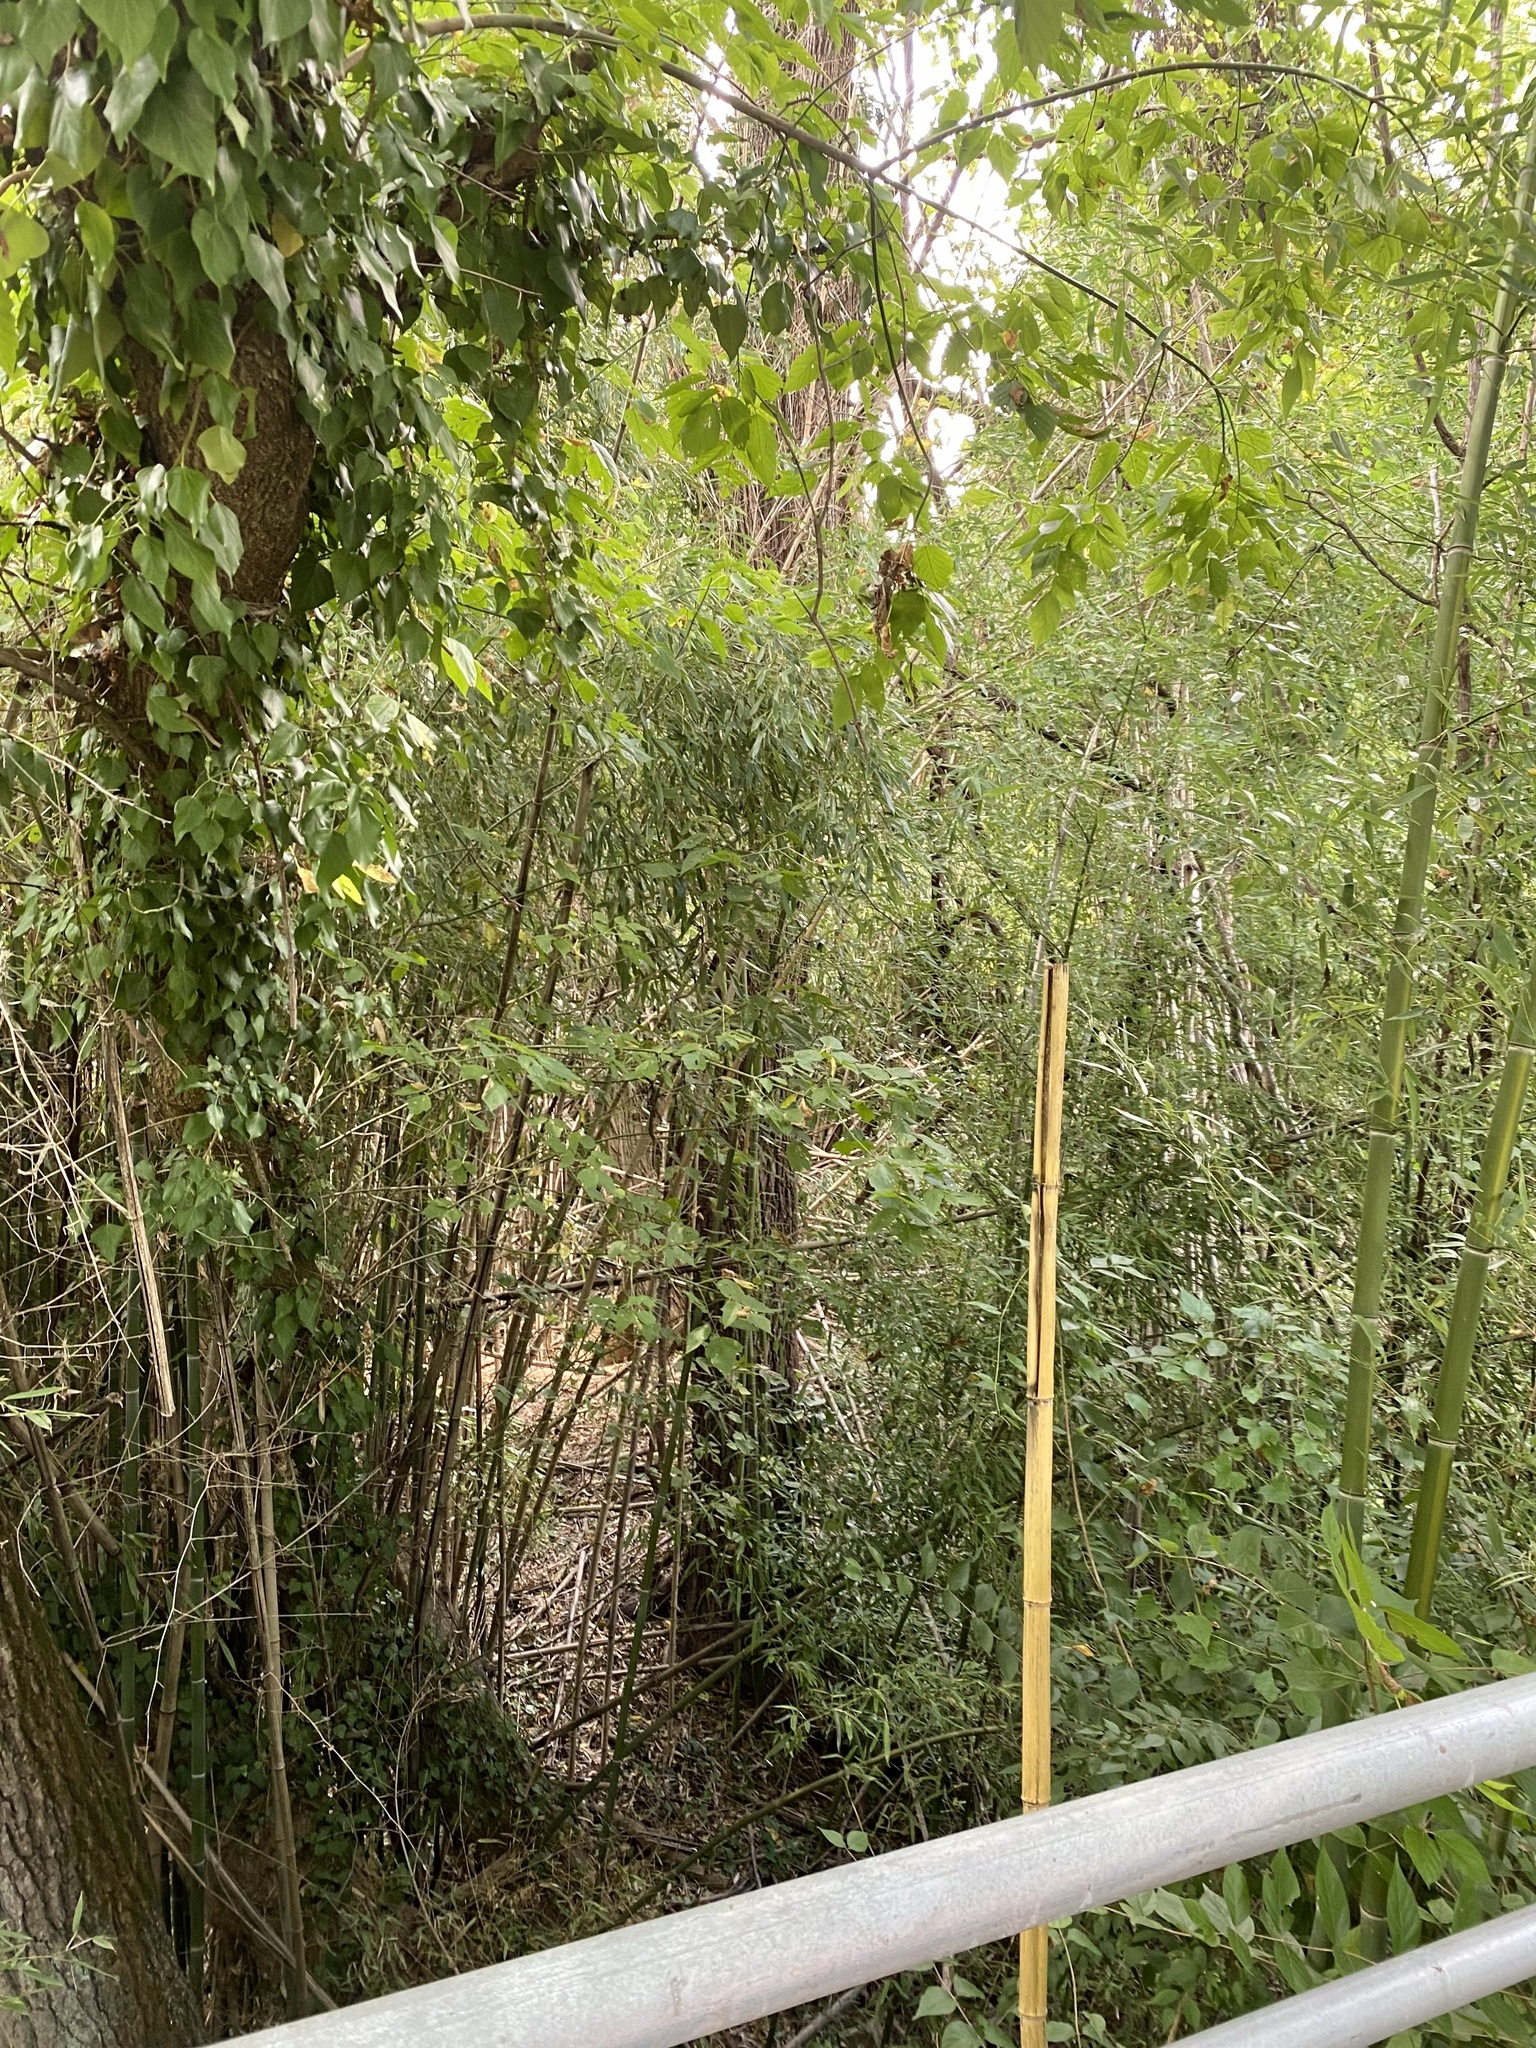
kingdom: Plantae
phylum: Tracheophyta
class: Liliopsida
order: Poales
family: Poaceae
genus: Phyllostachys
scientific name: Phyllostachys aureosulcata
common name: Yellow groove bamboo
